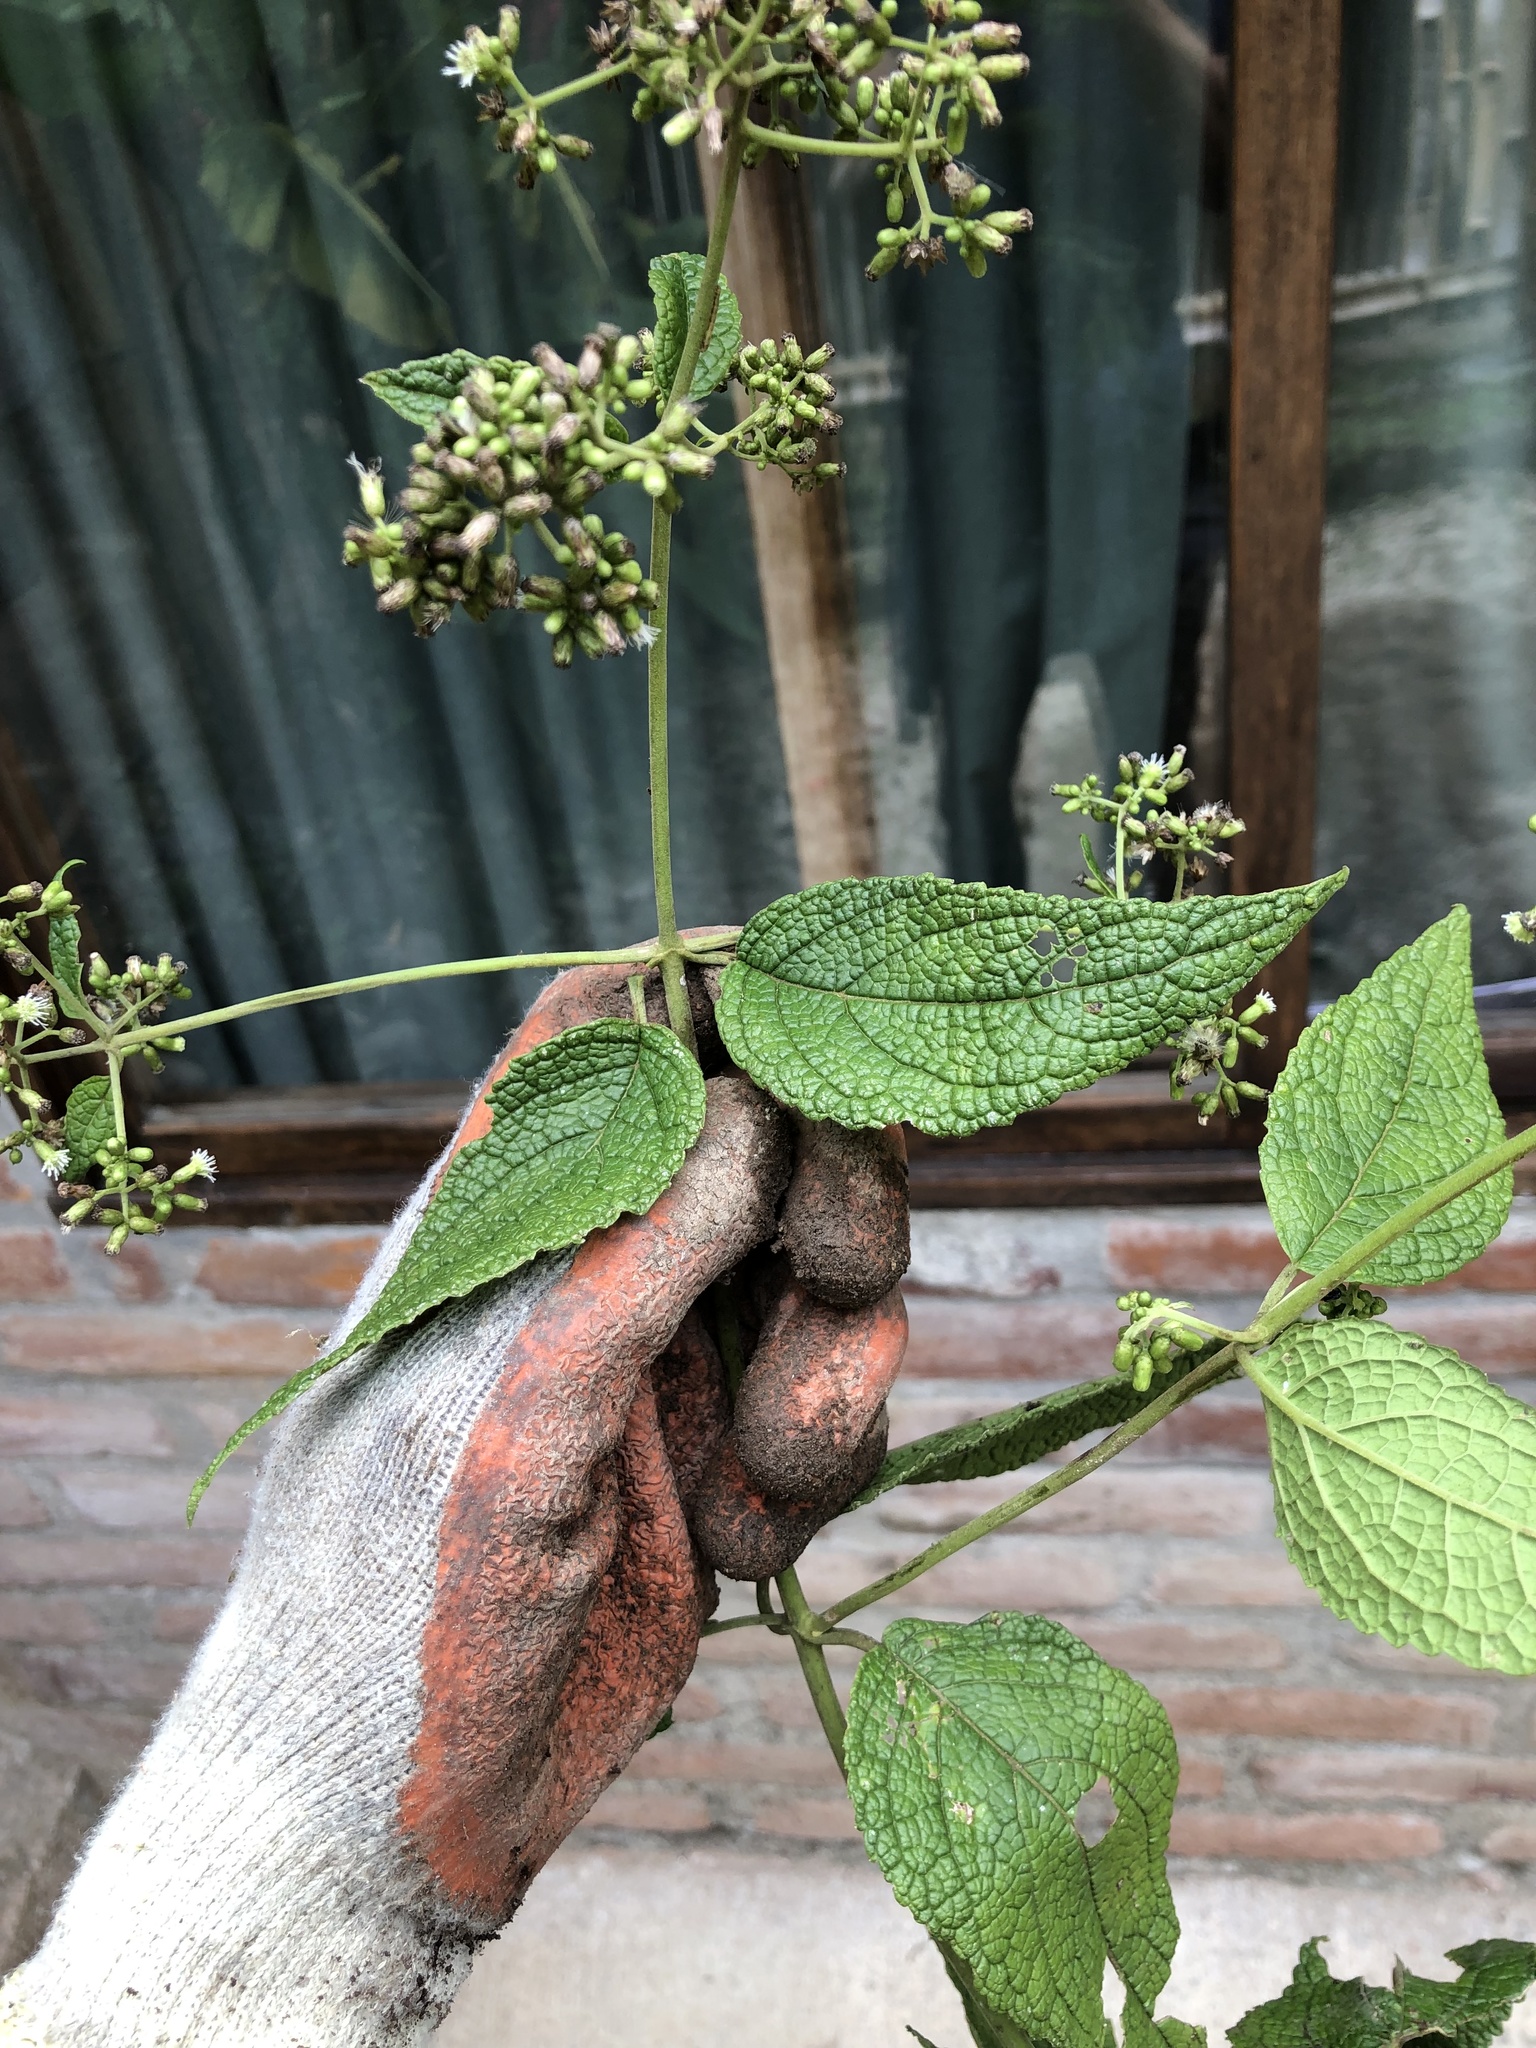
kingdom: Plantae
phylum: Tracheophyta
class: Magnoliopsida
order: Asterales
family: Asteraceae
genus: Hebeclinium
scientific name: Hebeclinium bullatissimum
